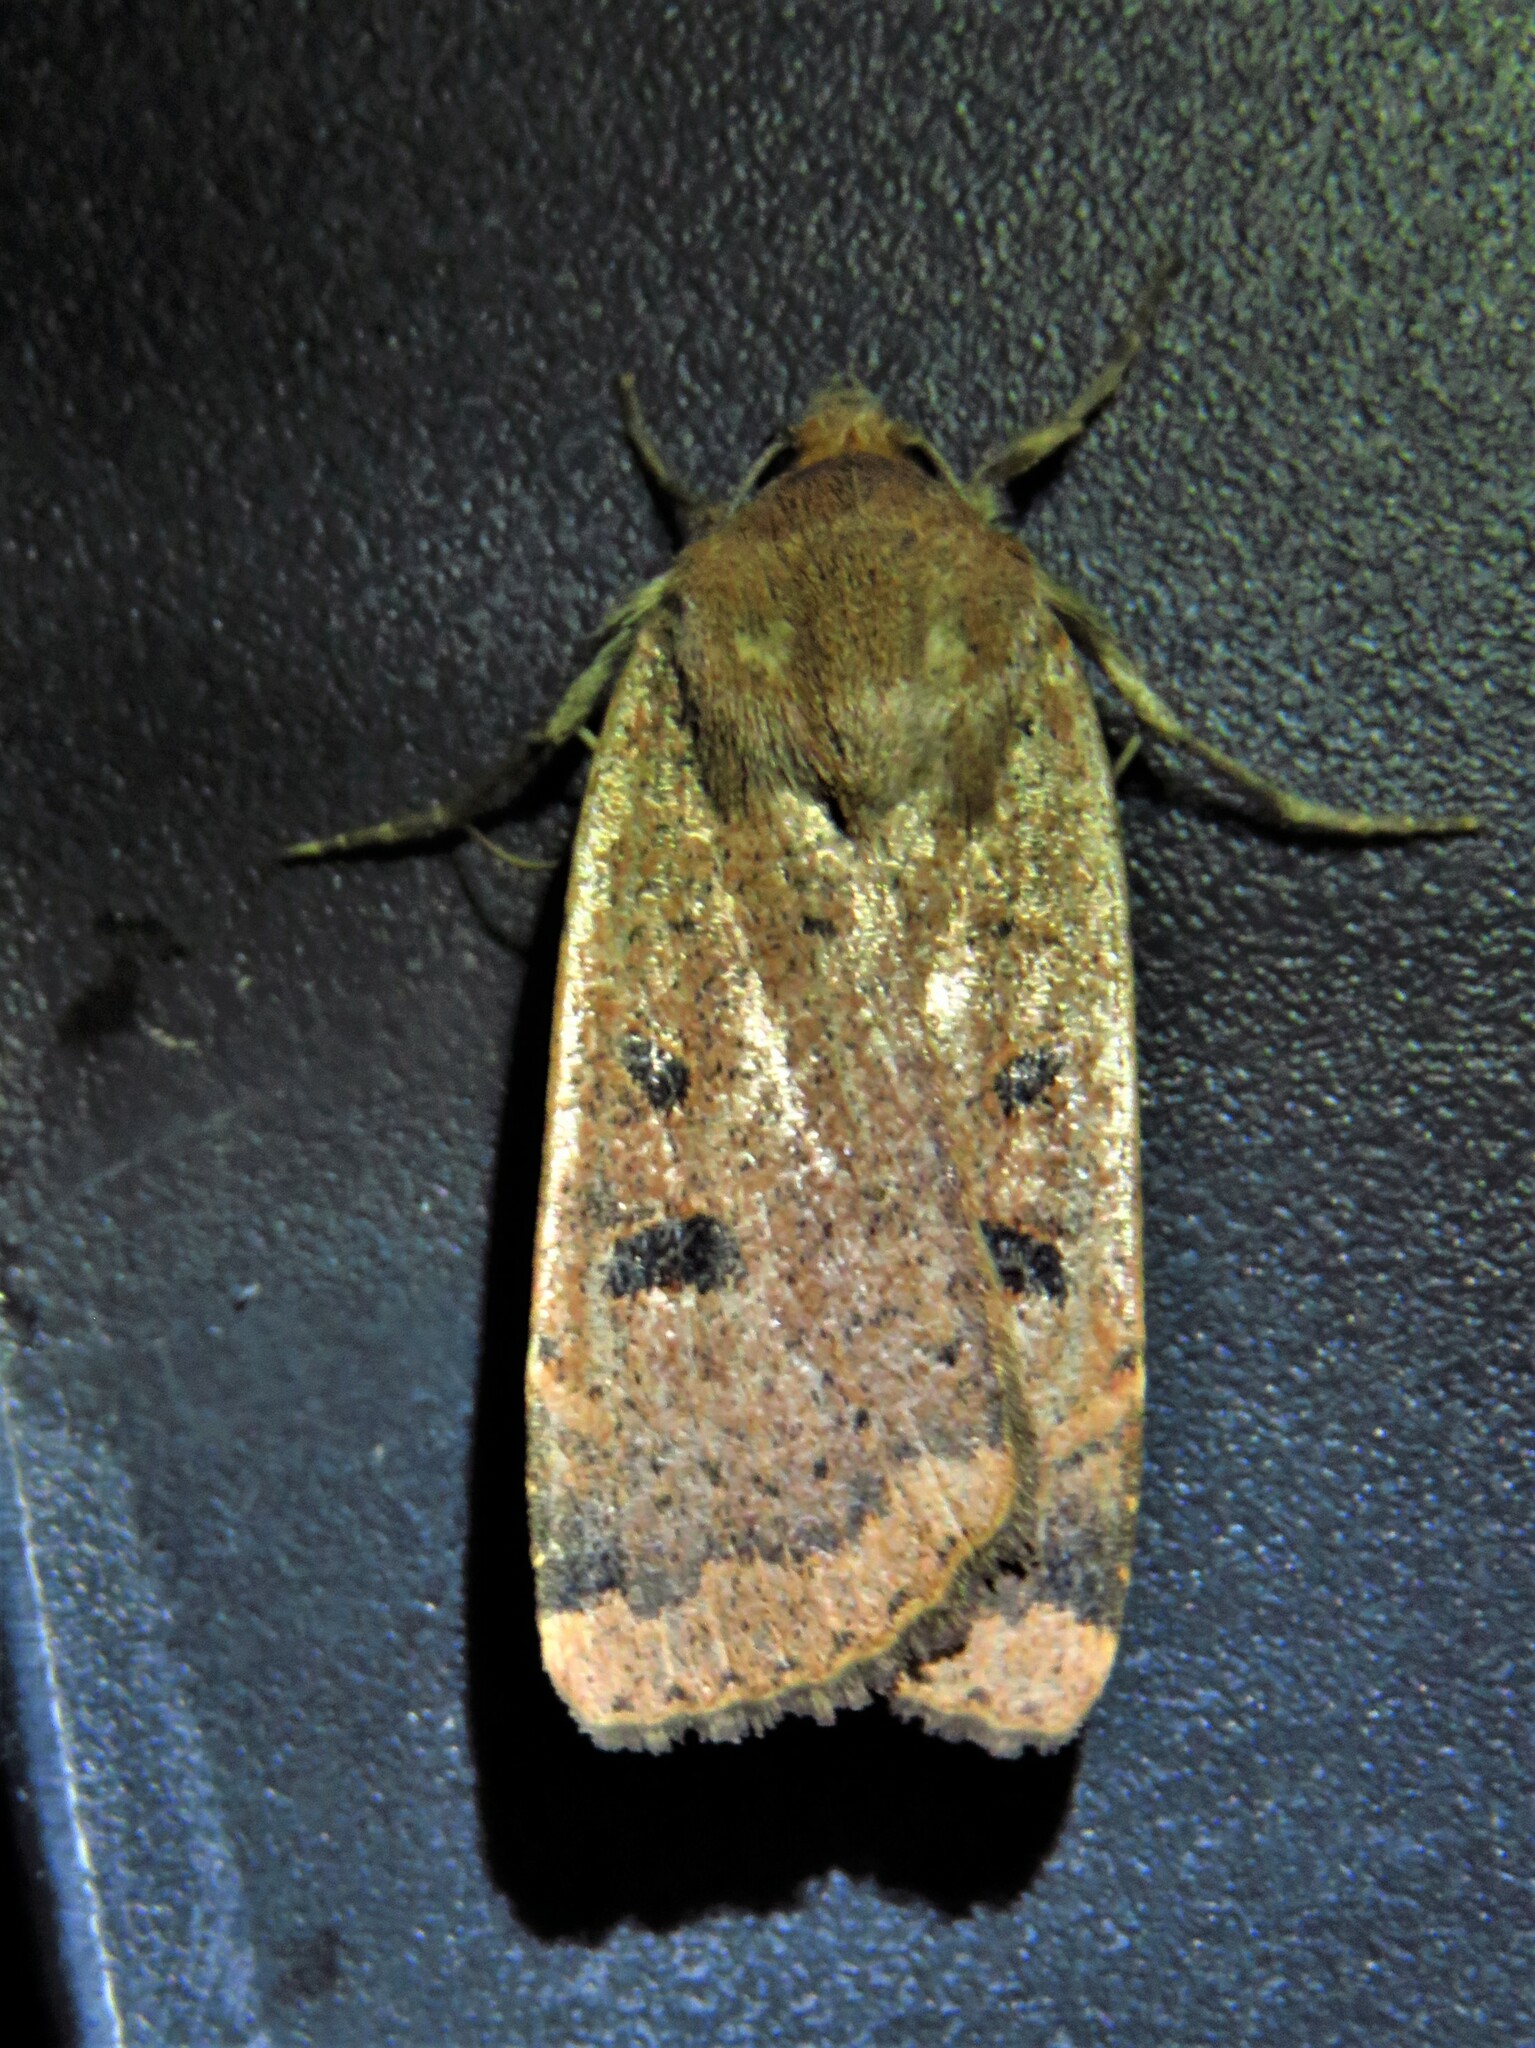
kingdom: Animalia
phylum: Arthropoda
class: Insecta
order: Lepidoptera
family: Noctuidae
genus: Noctua
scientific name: Noctua comes
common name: Lesser yellow underwing
